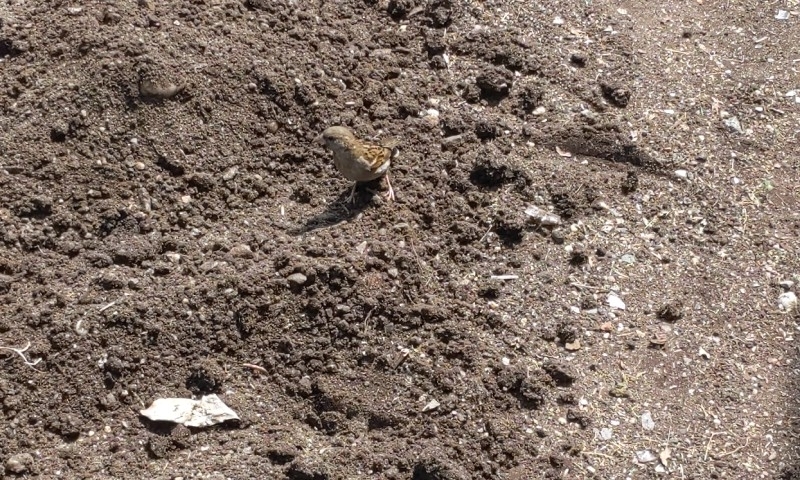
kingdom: Animalia
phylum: Chordata
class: Aves
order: Passeriformes
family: Passeridae
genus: Passer
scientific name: Passer domesticus
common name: House sparrow
